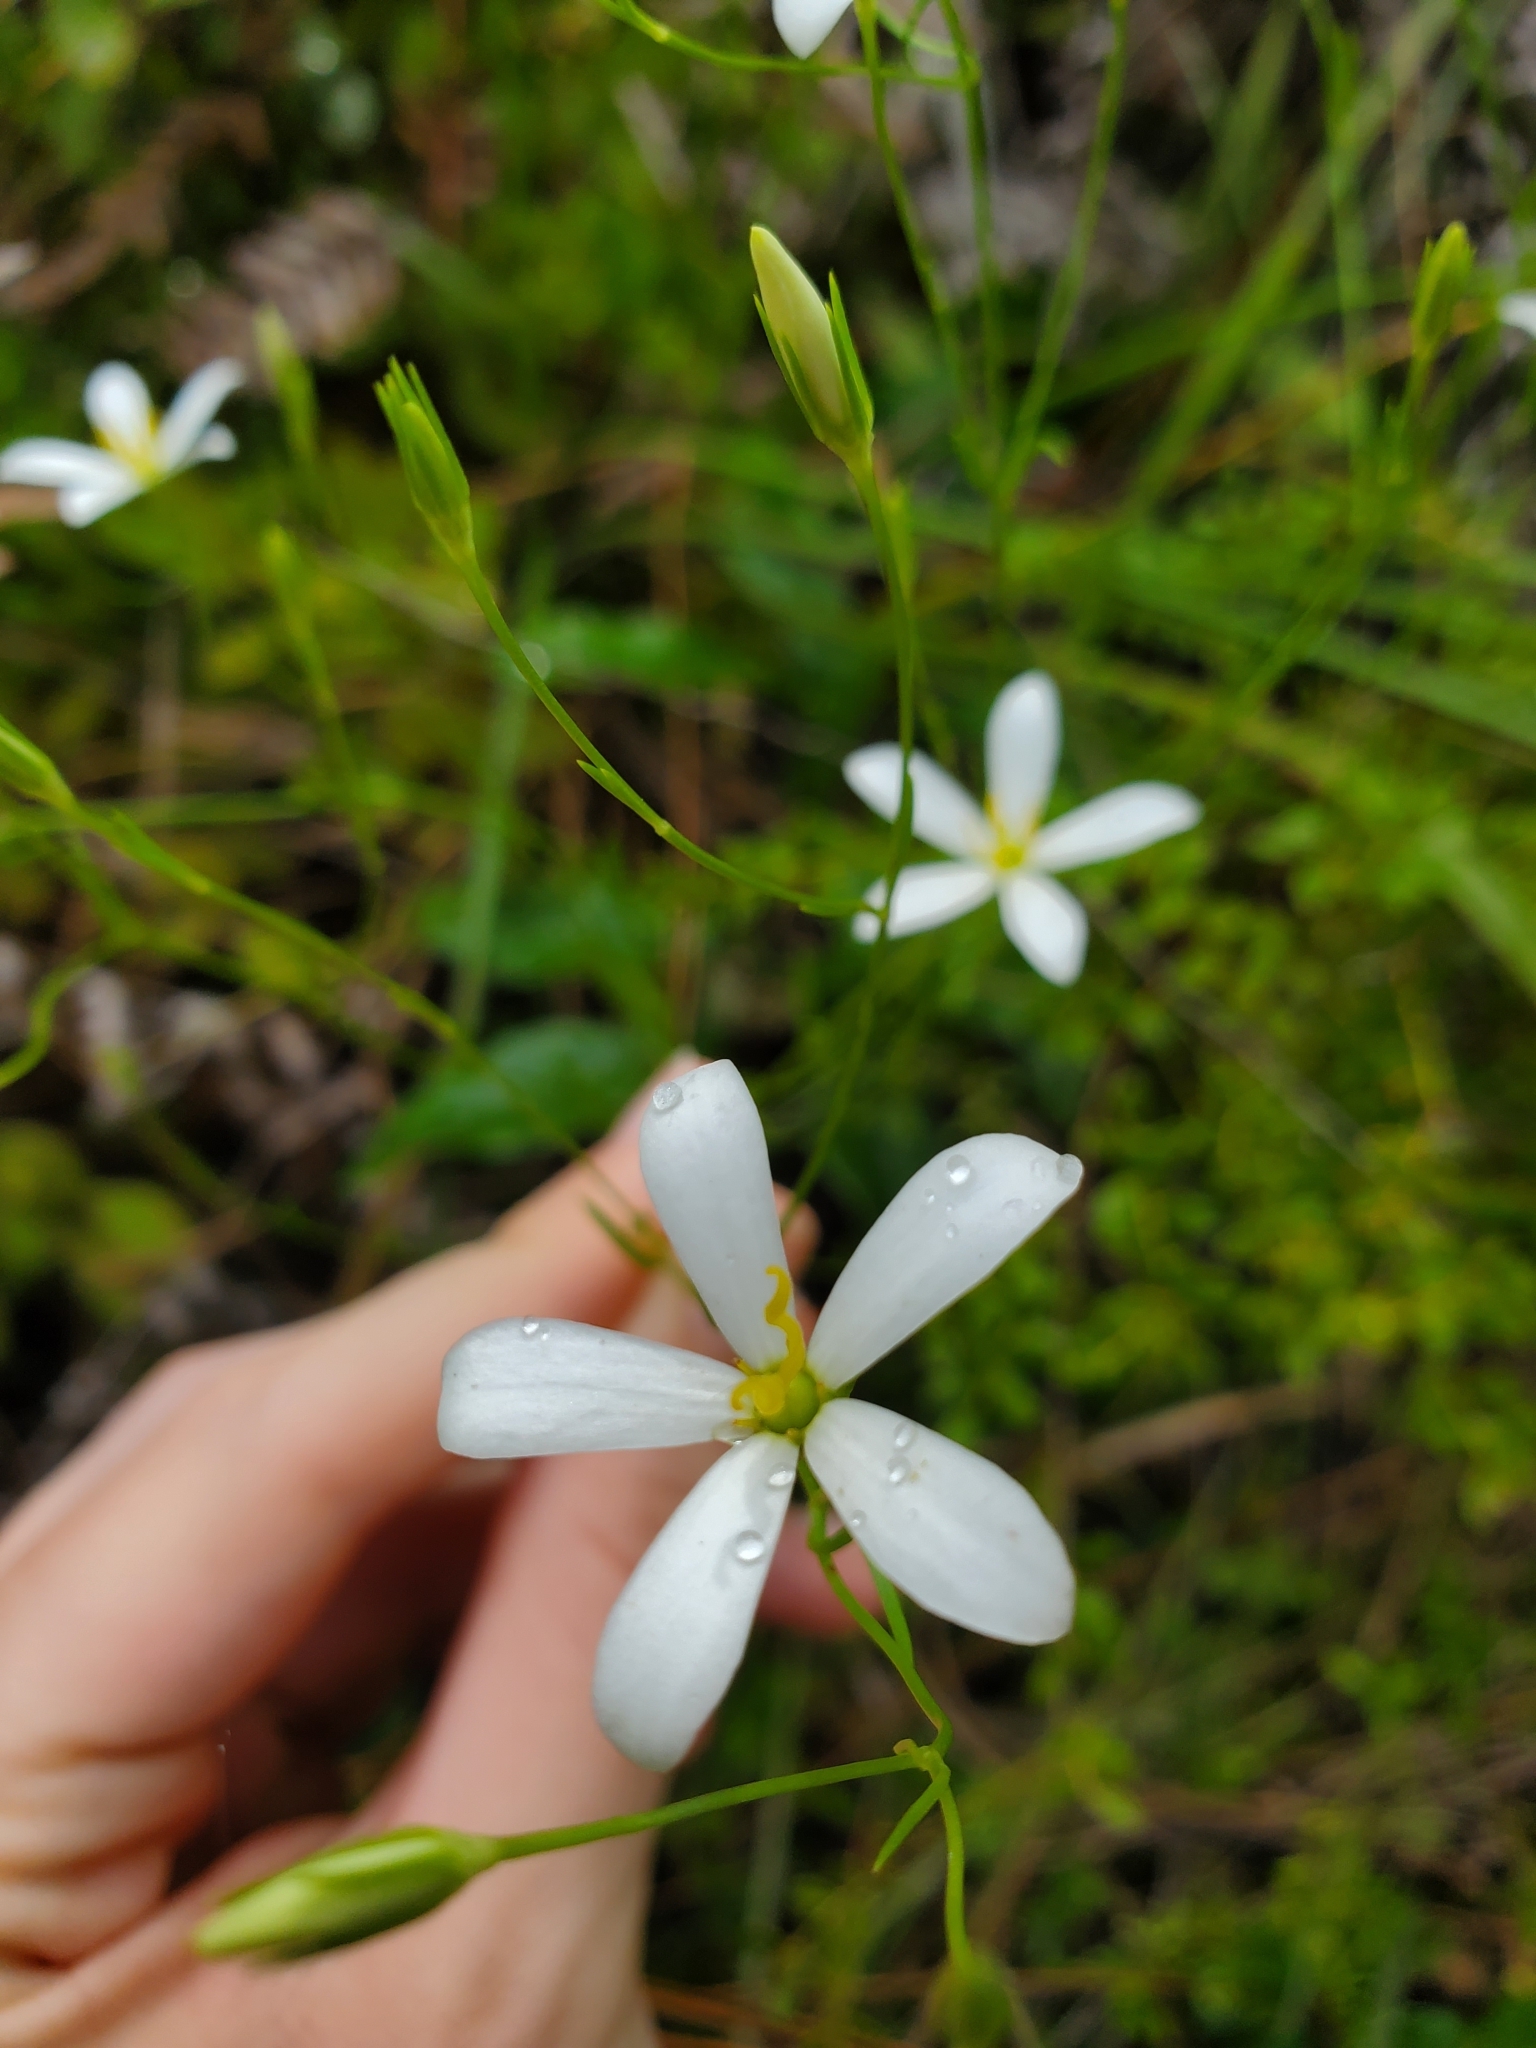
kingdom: Plantae
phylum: Tracheophyta
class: Magnoliopsida
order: Gentianales
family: Gentianaceae
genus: Sabatia
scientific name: Sabatia brevifolia
